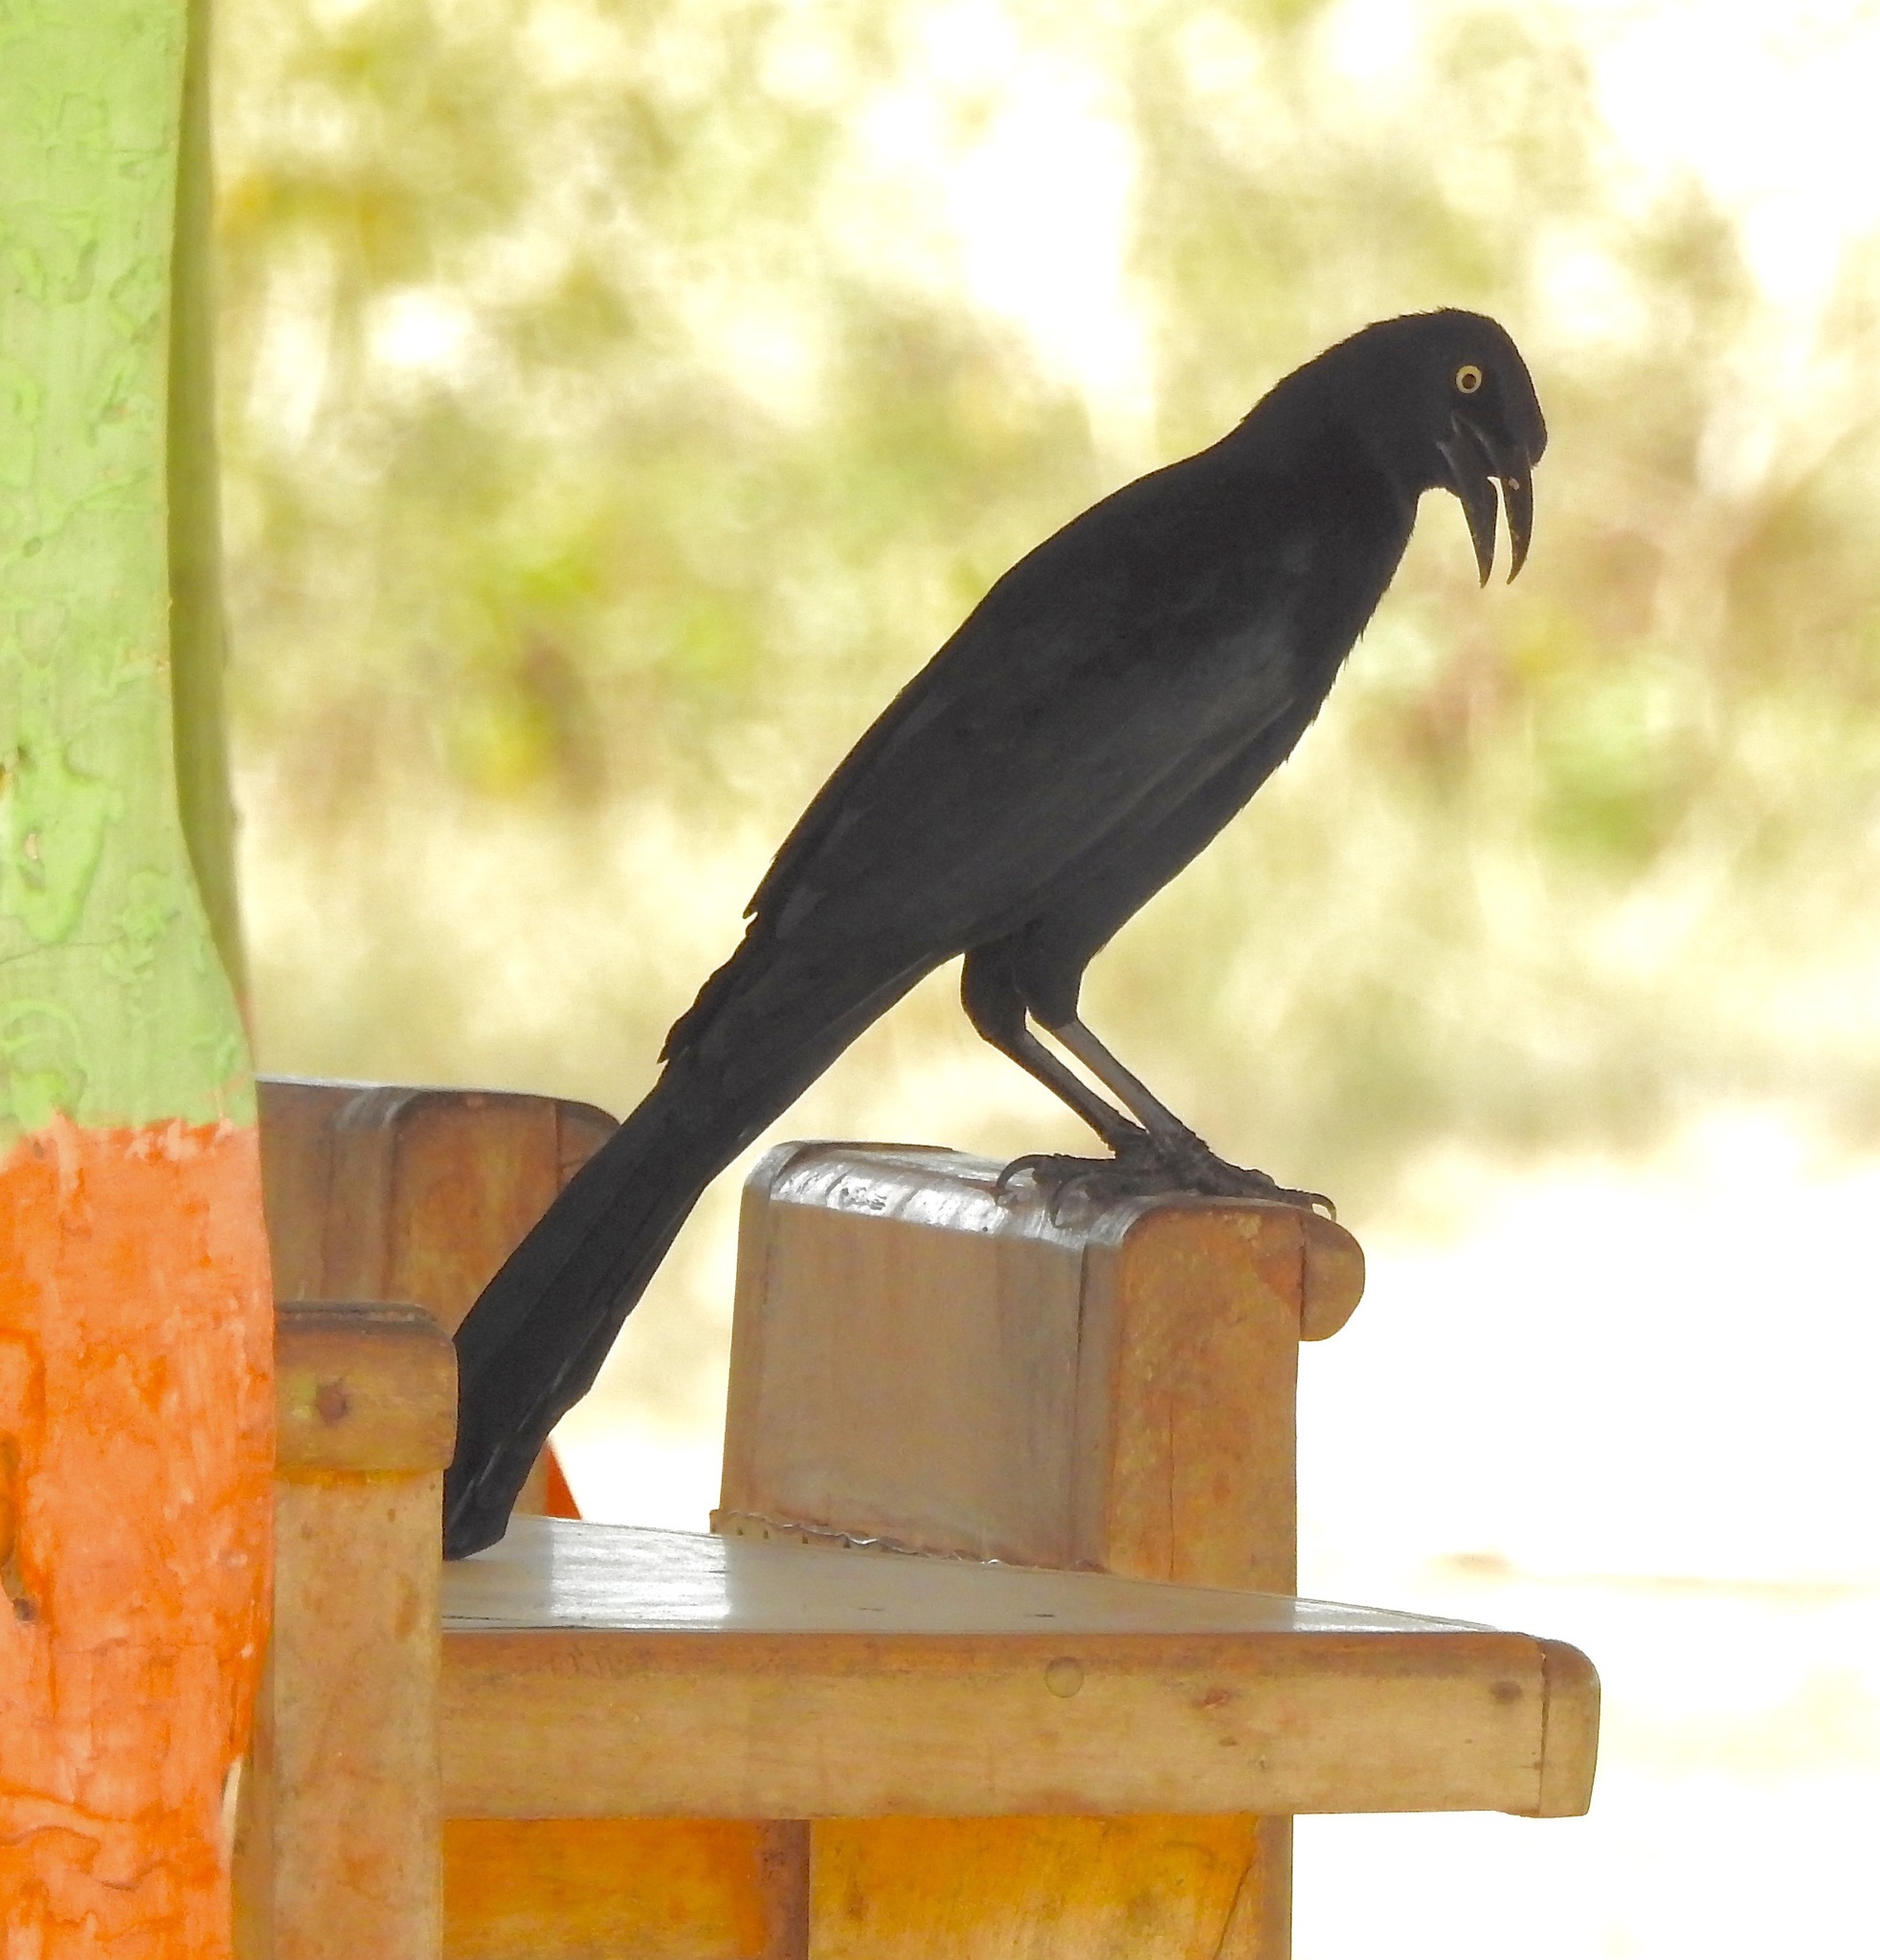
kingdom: Animalia
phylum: Chordata
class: Aves
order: Passeriformes
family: Icteridae
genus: Quiscalus
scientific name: Quiscalus mexicanus
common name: Great-tailed grackle
